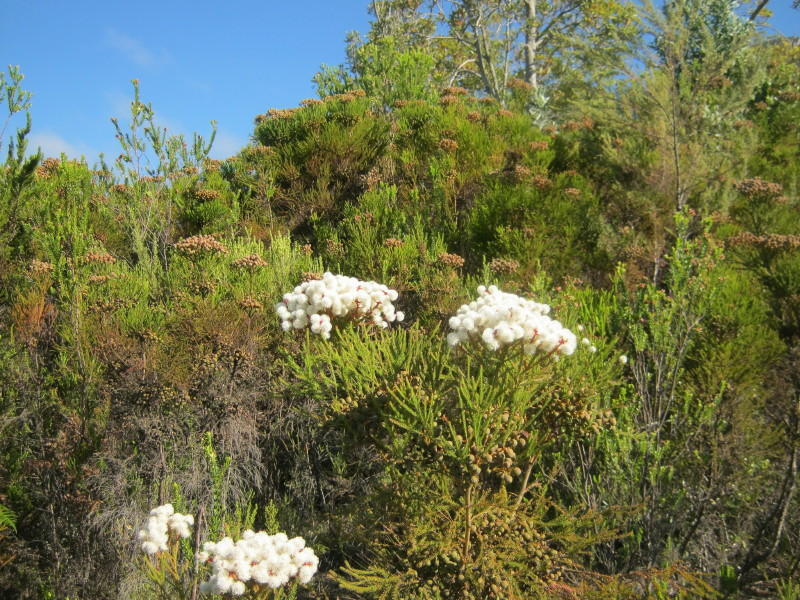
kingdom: Plantae
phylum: Tracheophyta
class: Magnoliopsida
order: Bruniales
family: Bruniaceae
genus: Berzelia
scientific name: Berzelia intermedia
